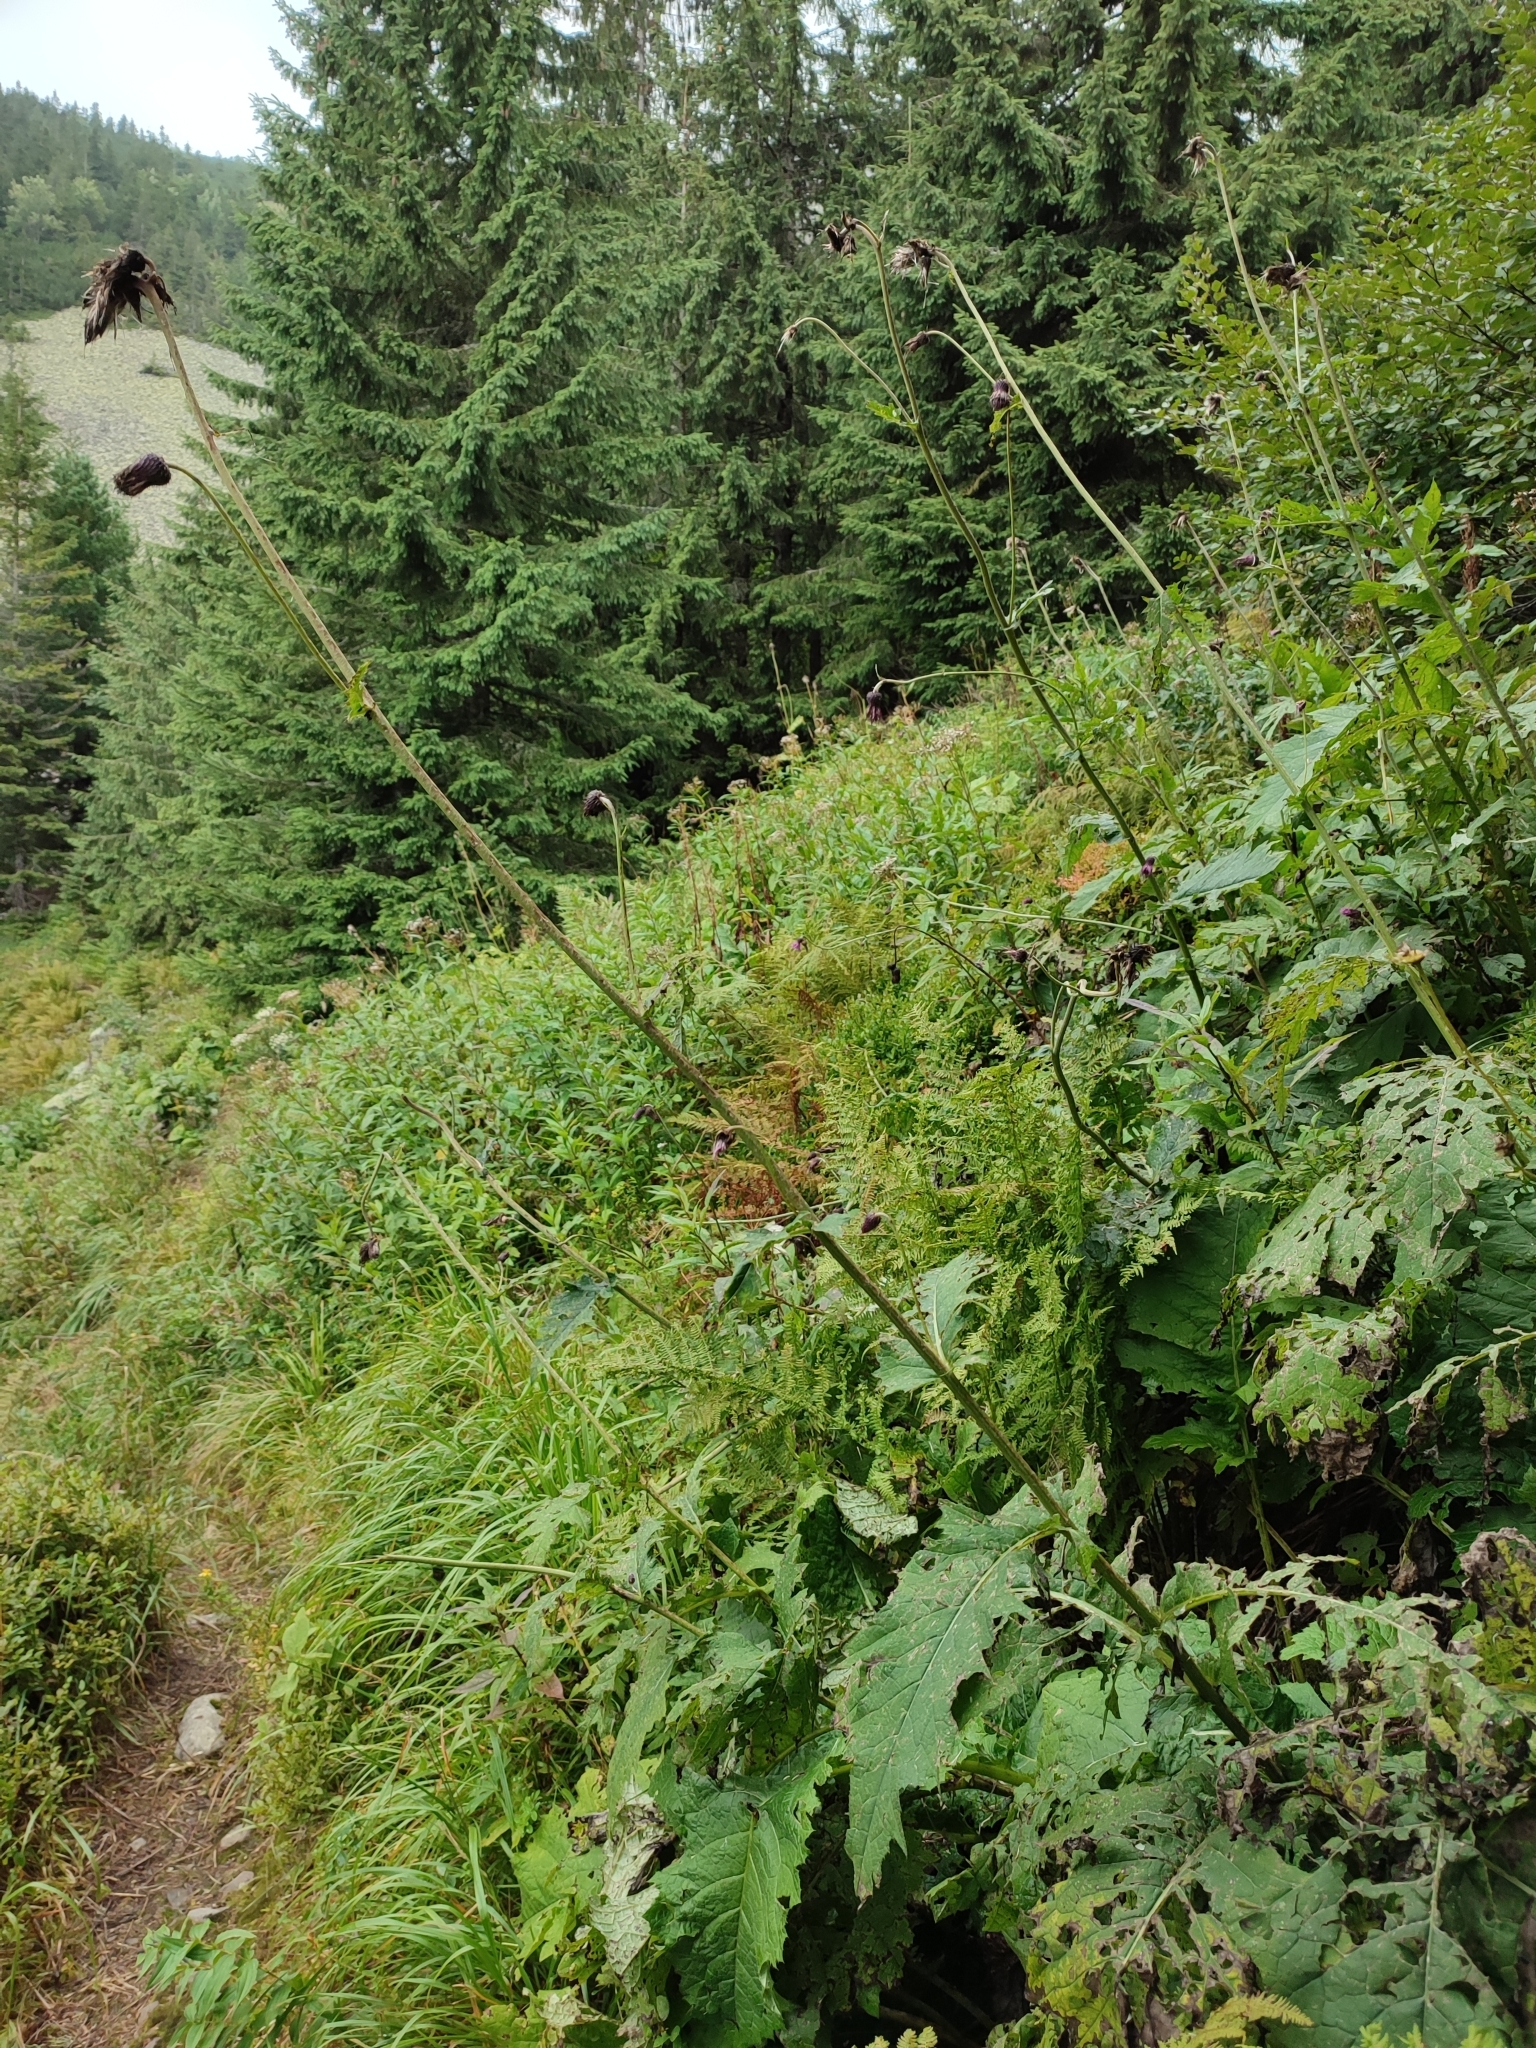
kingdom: Plantae
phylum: Tracheophyta
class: Magnoliopsida
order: Asterales
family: Asteraceae
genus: Cirsium
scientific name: Cirsium waldsteinii
